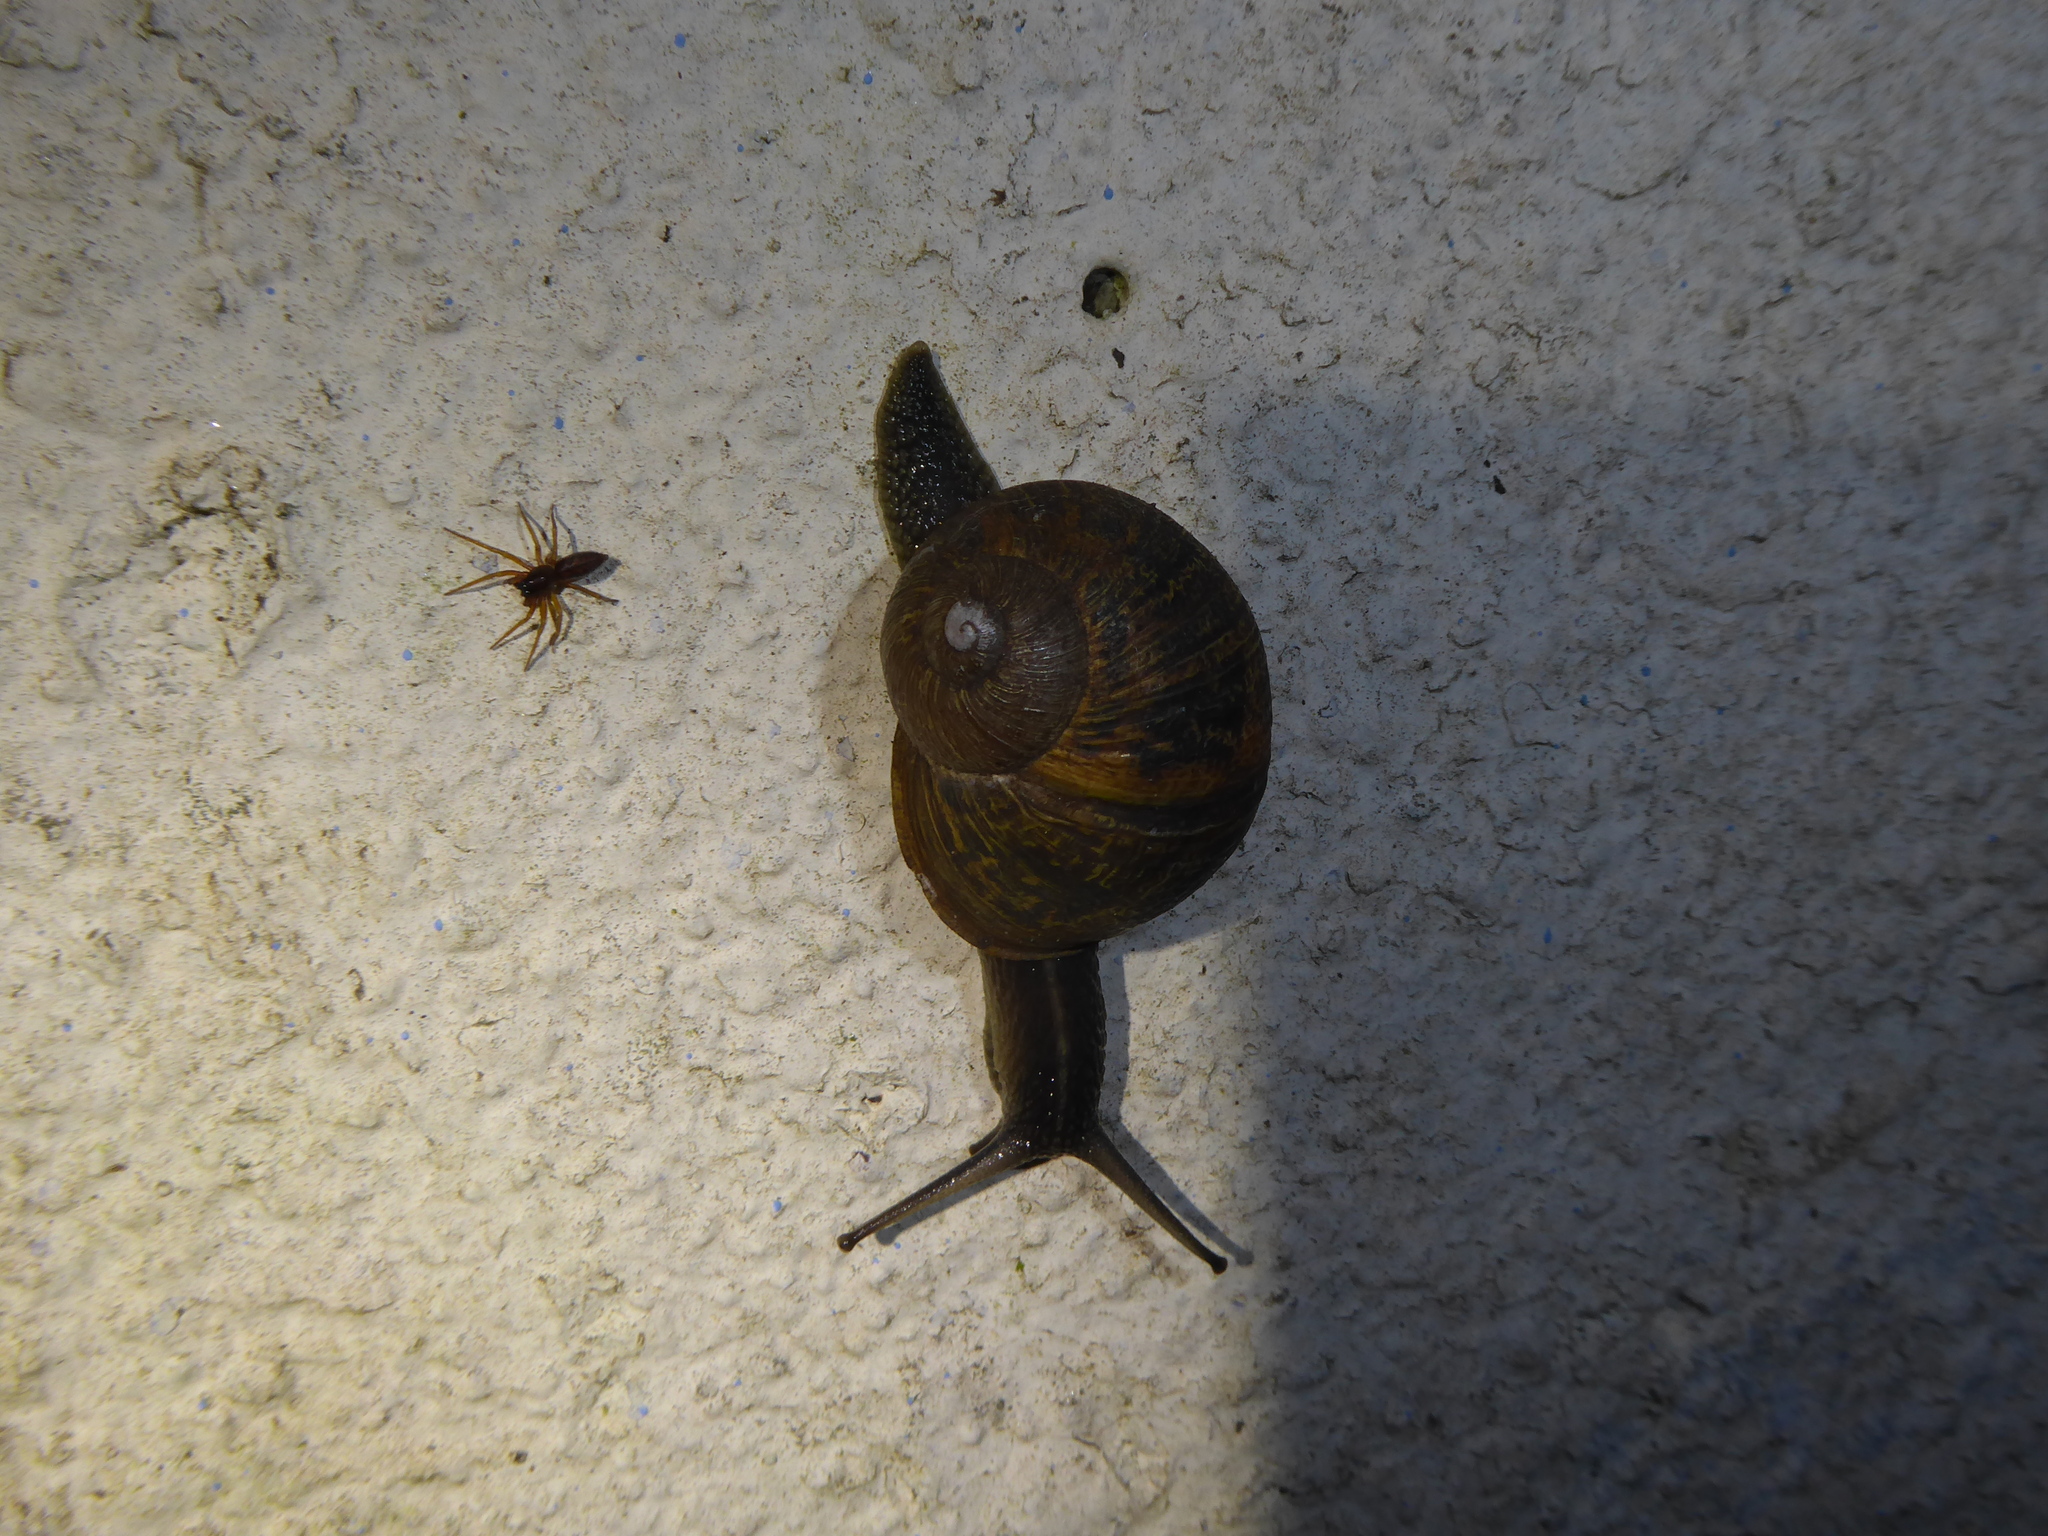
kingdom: Animalia
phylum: Mollusca
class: Gastropoda
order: Stylommatophora
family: Helicidae
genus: Cornu
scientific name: Cornu aspersum
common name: Brown garden snail
